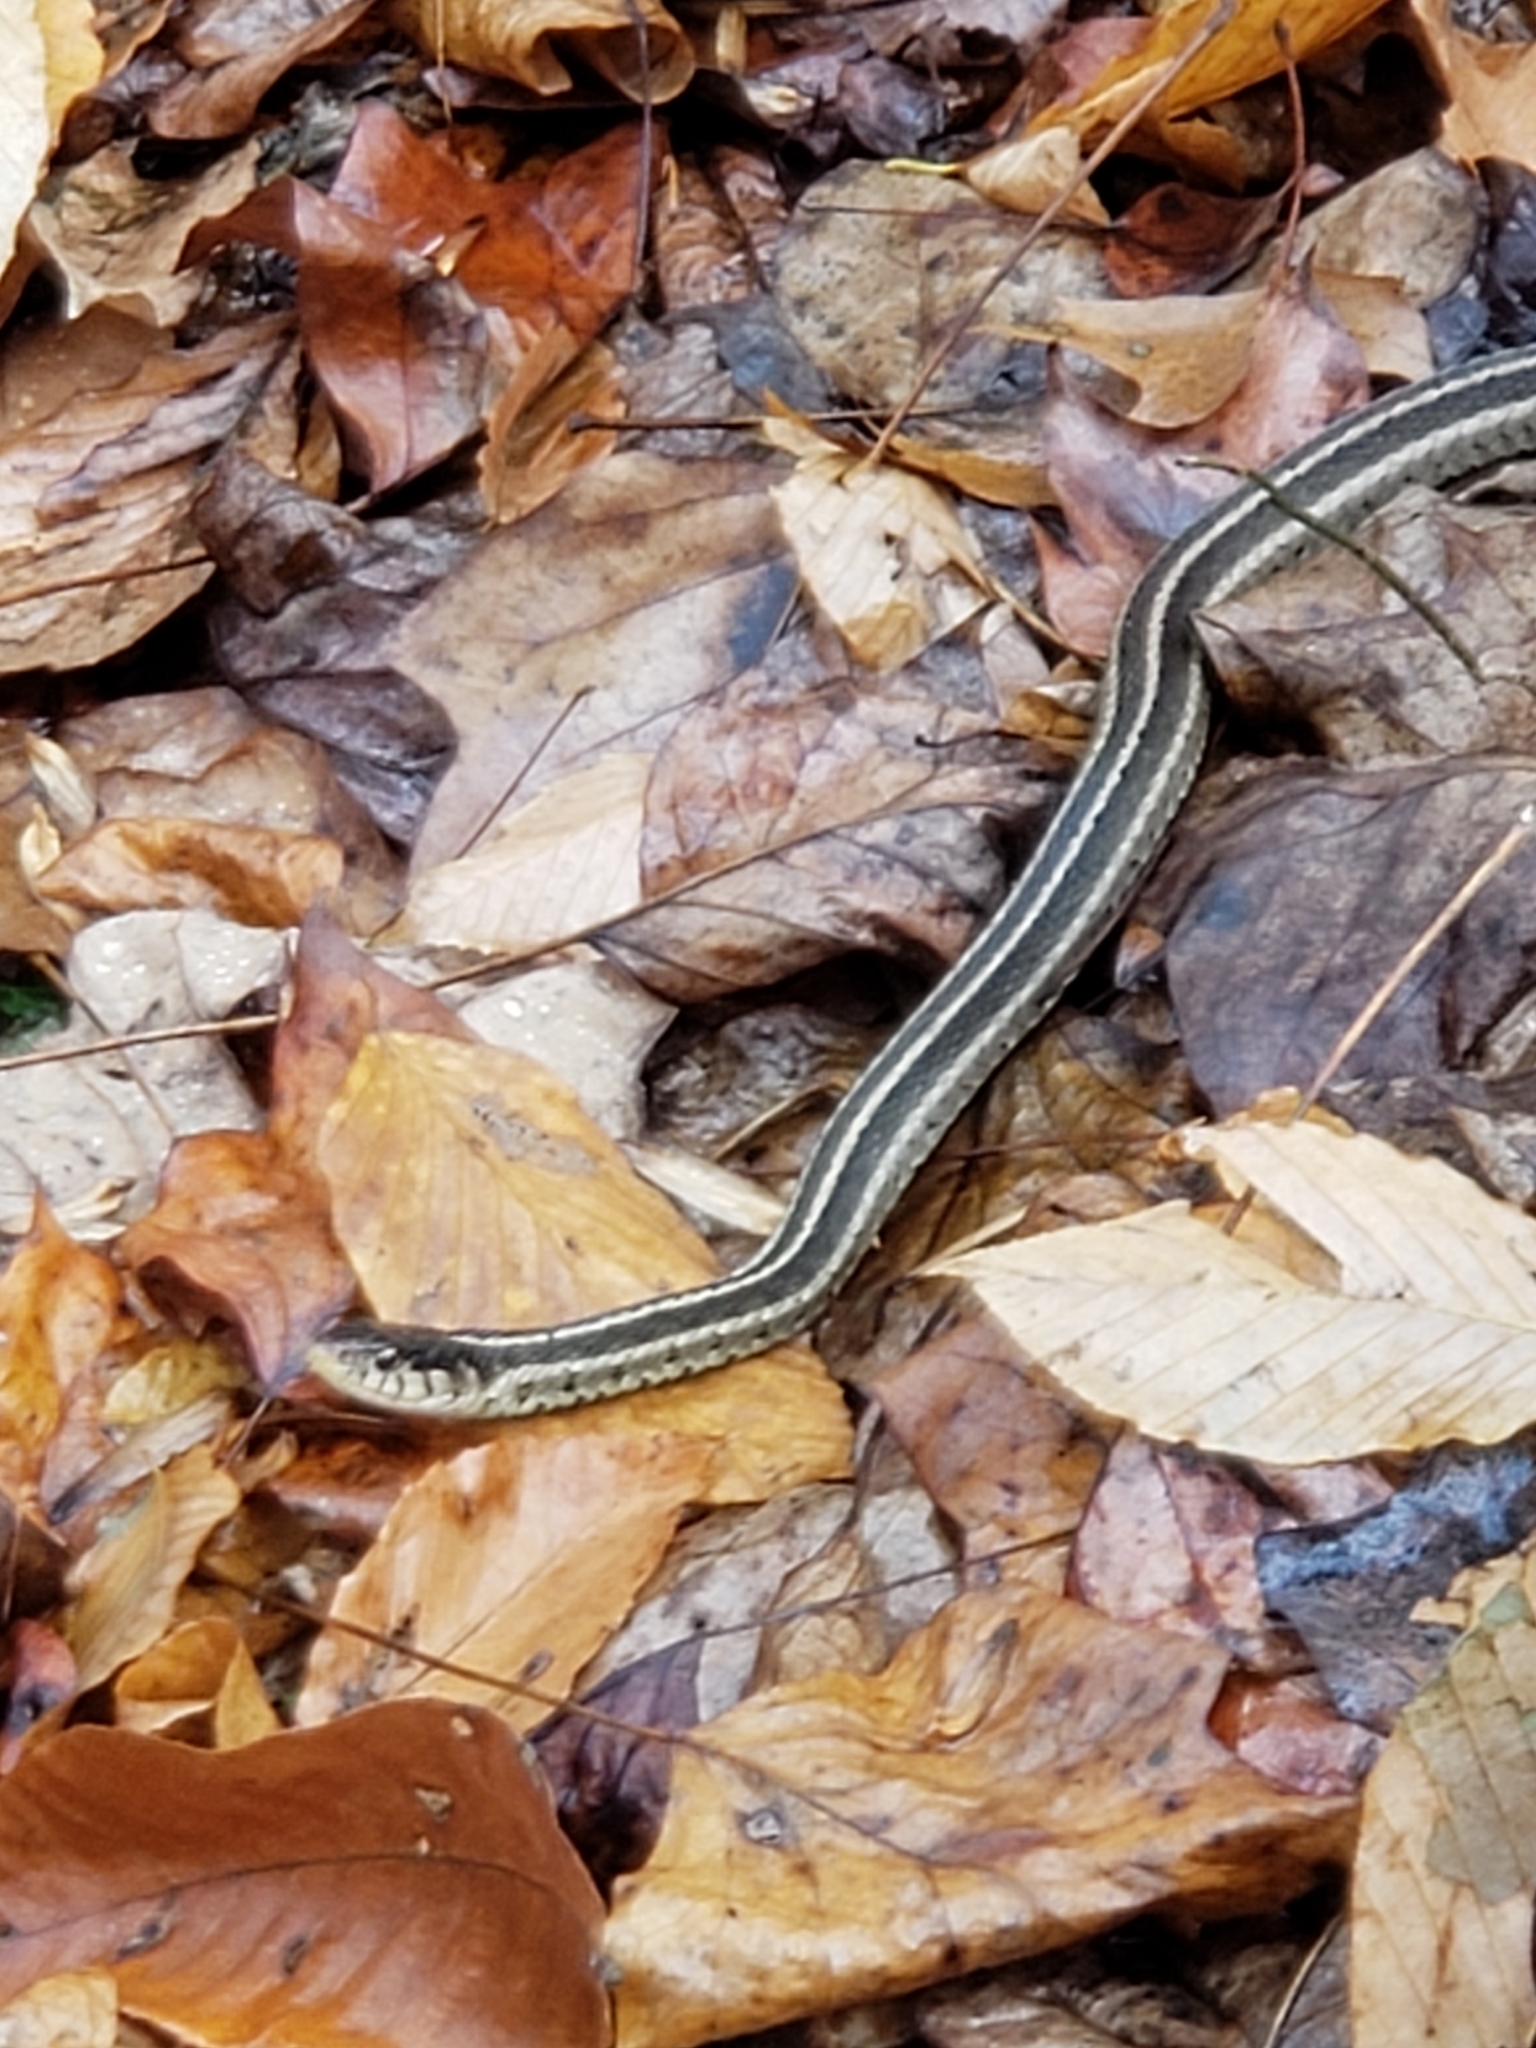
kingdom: Animalia
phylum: Chordata
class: Squamata
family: Colubridae
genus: Thamnophis
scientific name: Thamnophis sirtalis
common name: Common garter snake
